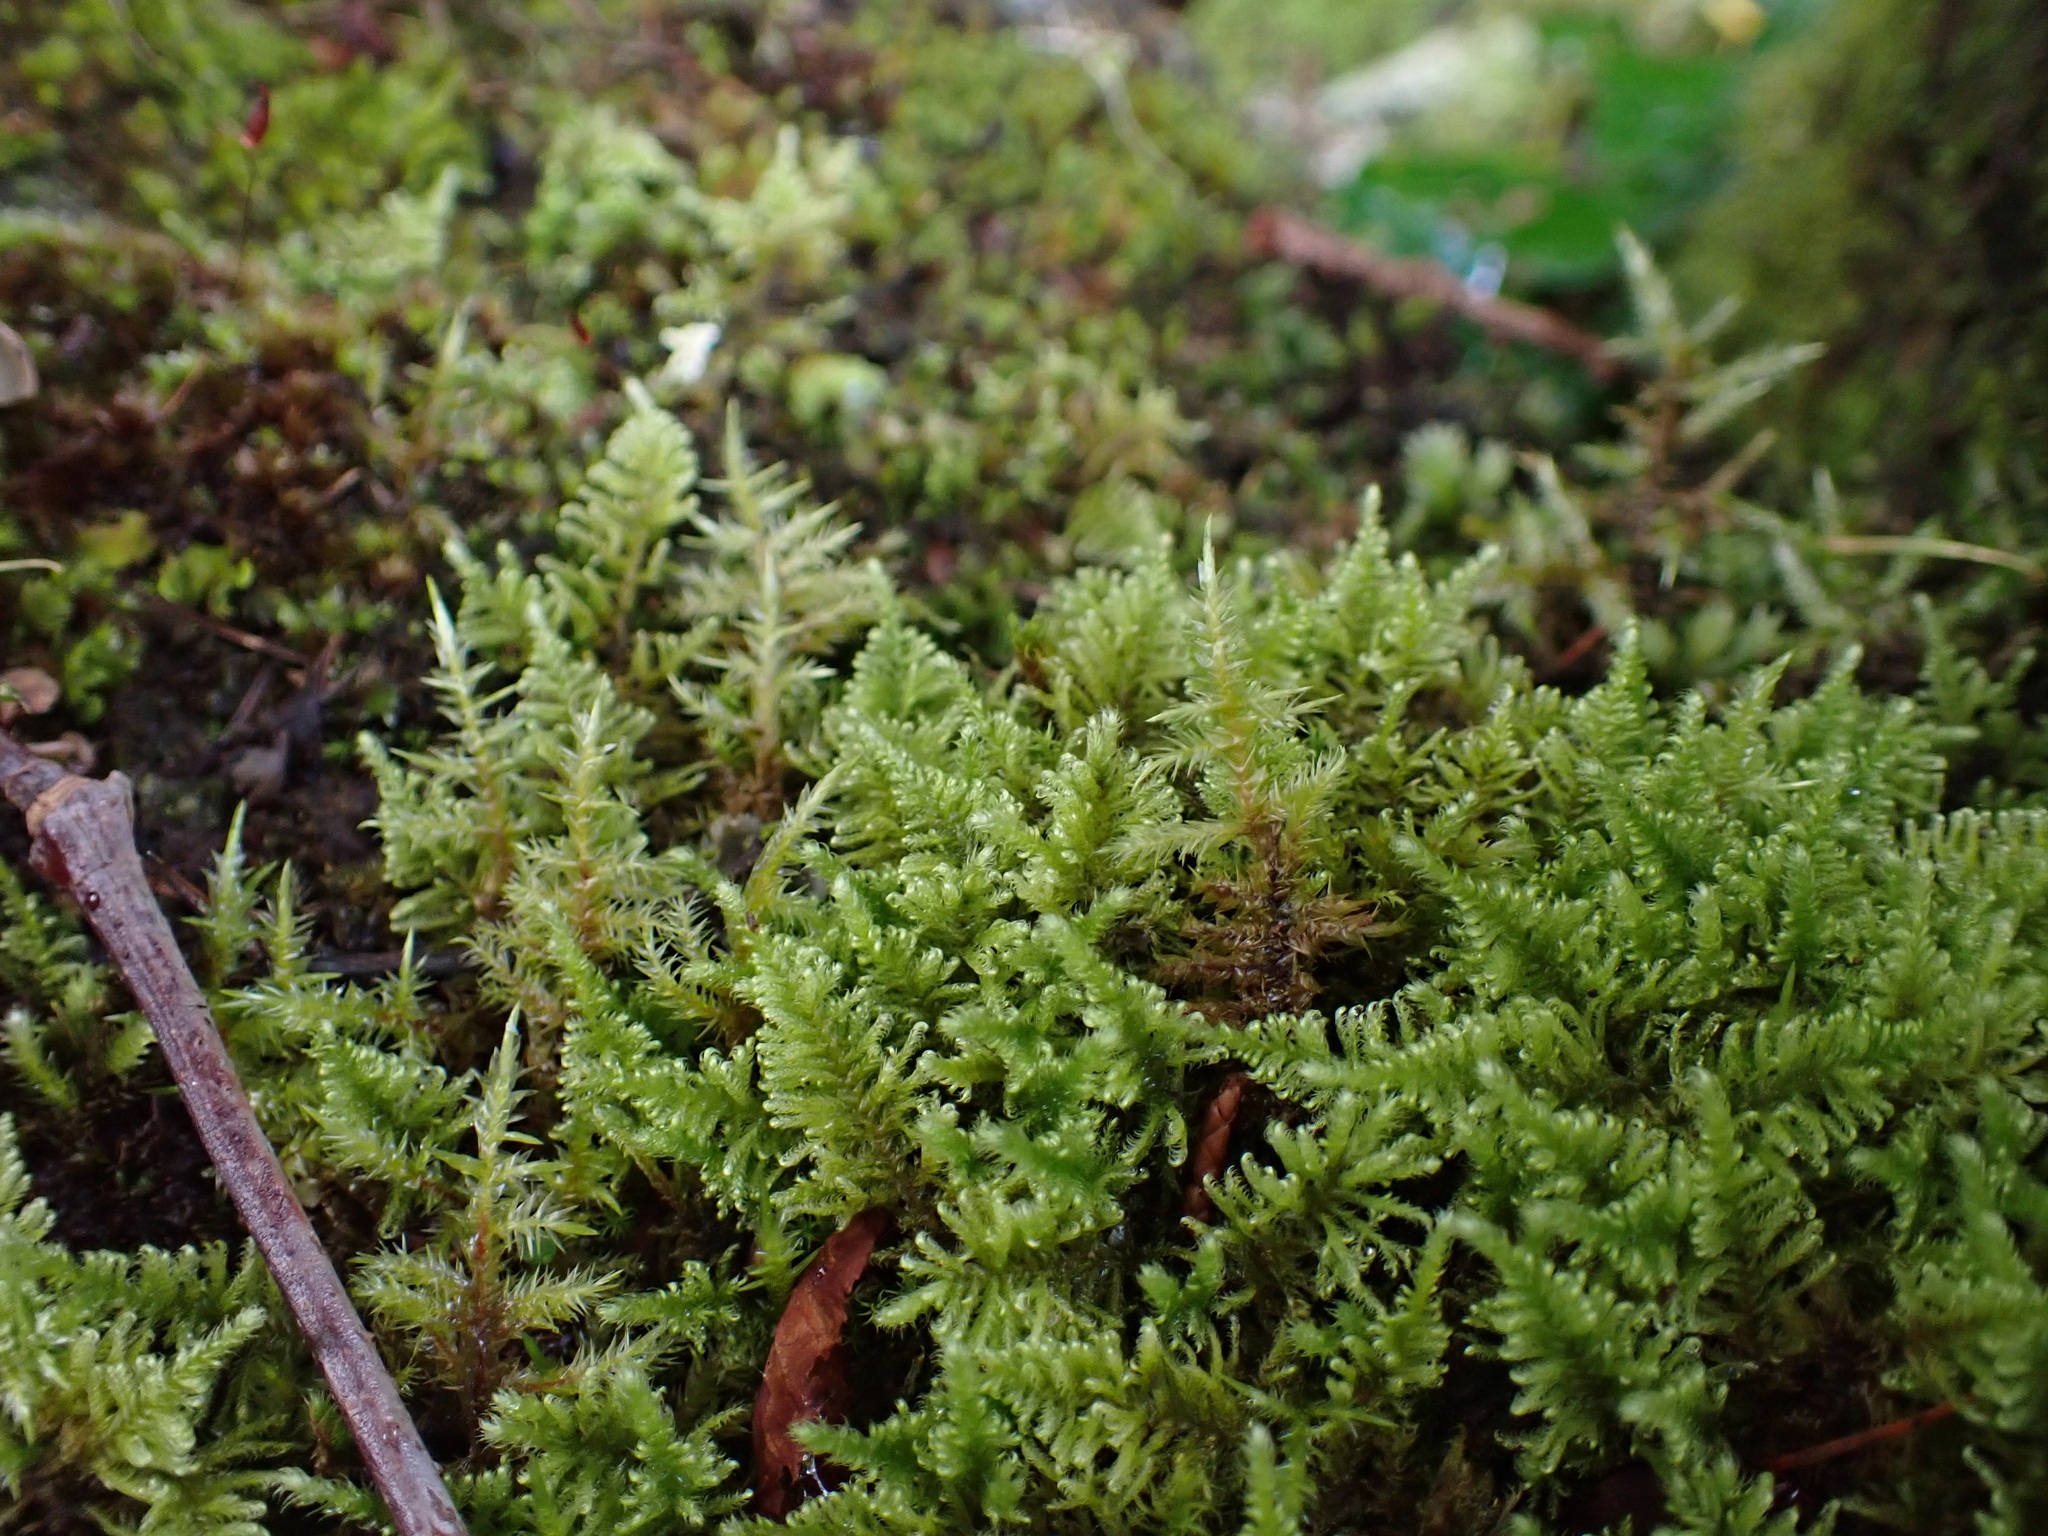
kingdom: Plantae
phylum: Bryophyta
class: Bryopsida
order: Hypnales
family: Myuriaceae
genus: Ctenidium
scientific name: Ctenidium molluscum
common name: Chalk comb-moss
